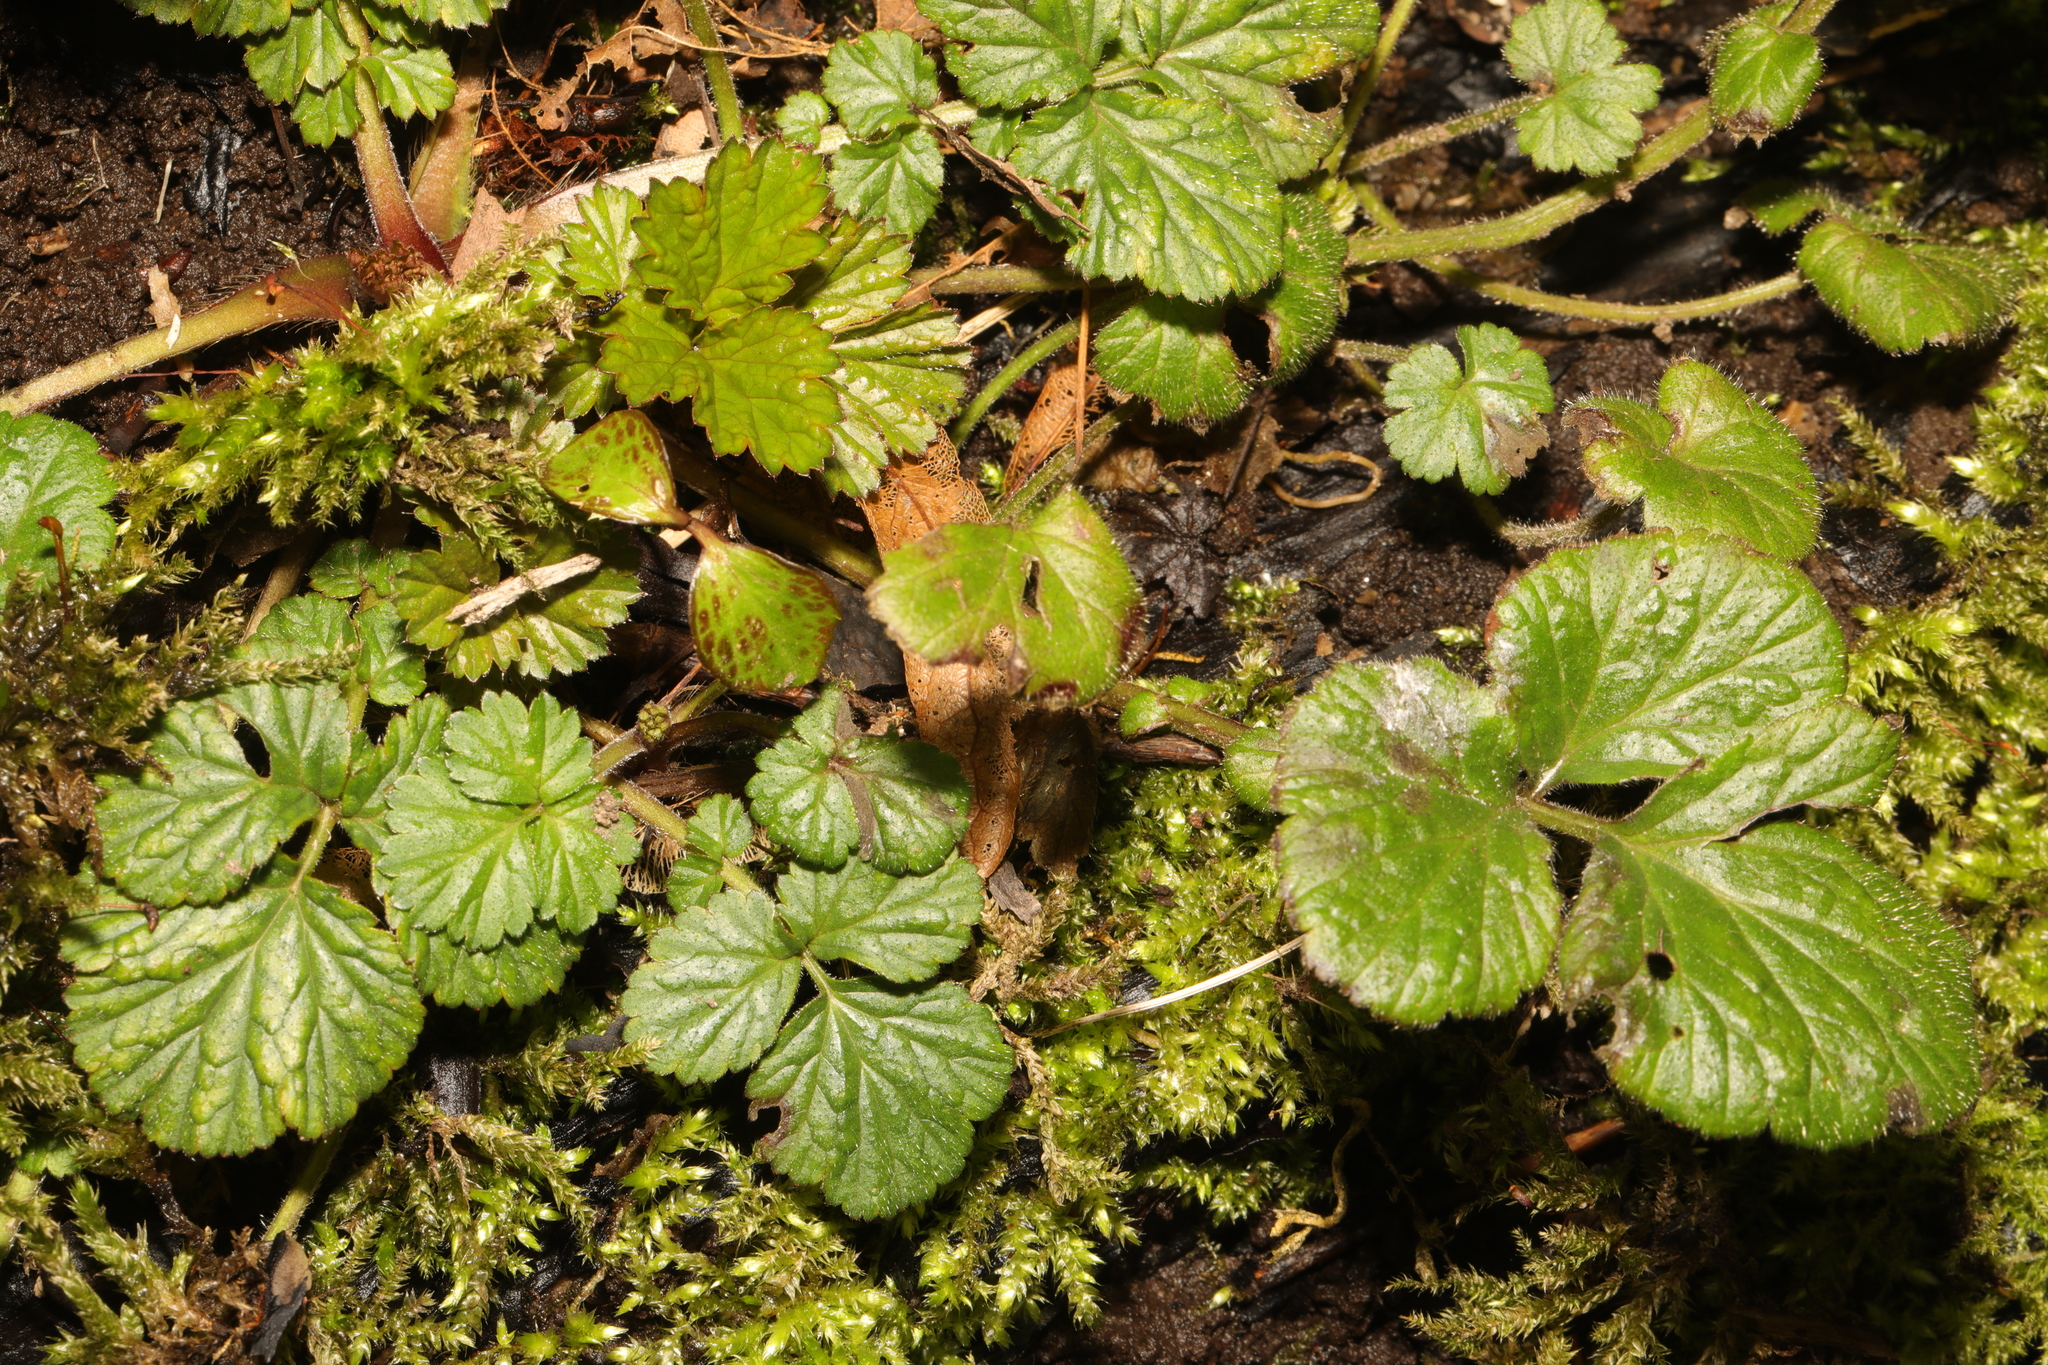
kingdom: Plantae
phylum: Tracheophyta
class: Magnoliopsida
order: Rosales
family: Rosaceae
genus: Geum
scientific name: Geum urbanum
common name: Wood avens
